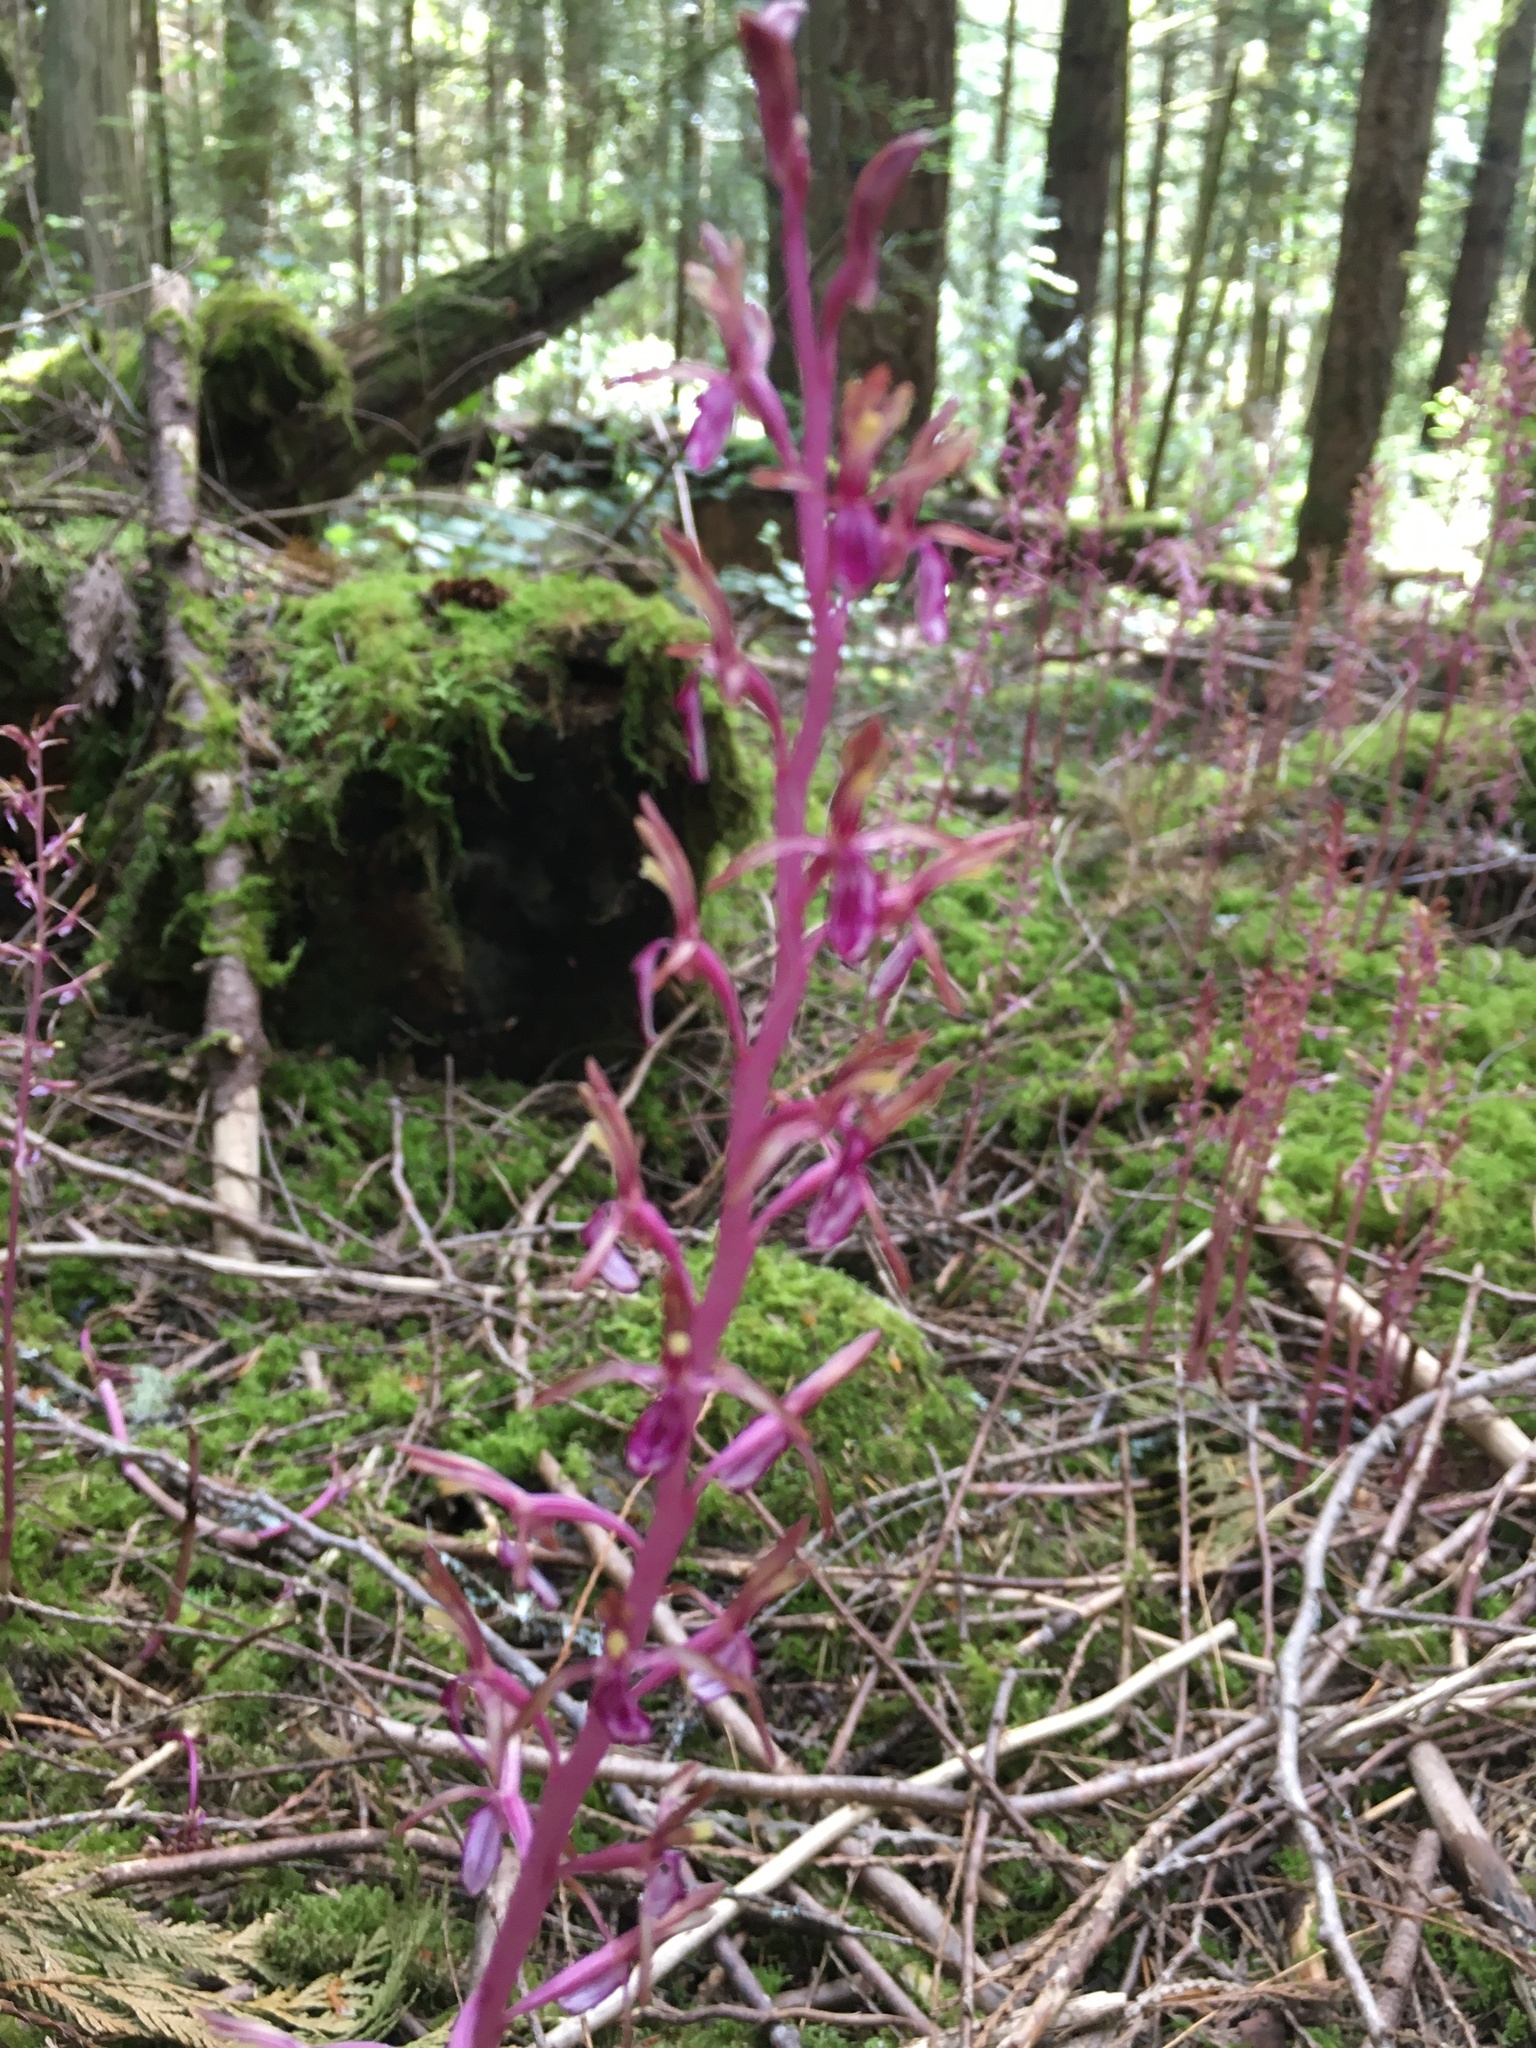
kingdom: Plantae
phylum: Tracheophyta
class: Liliopsida
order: Asparagales
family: Orchidaceae
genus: Corallorhiza
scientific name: Corallorhiza mertensiana
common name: Pacific coralroot
